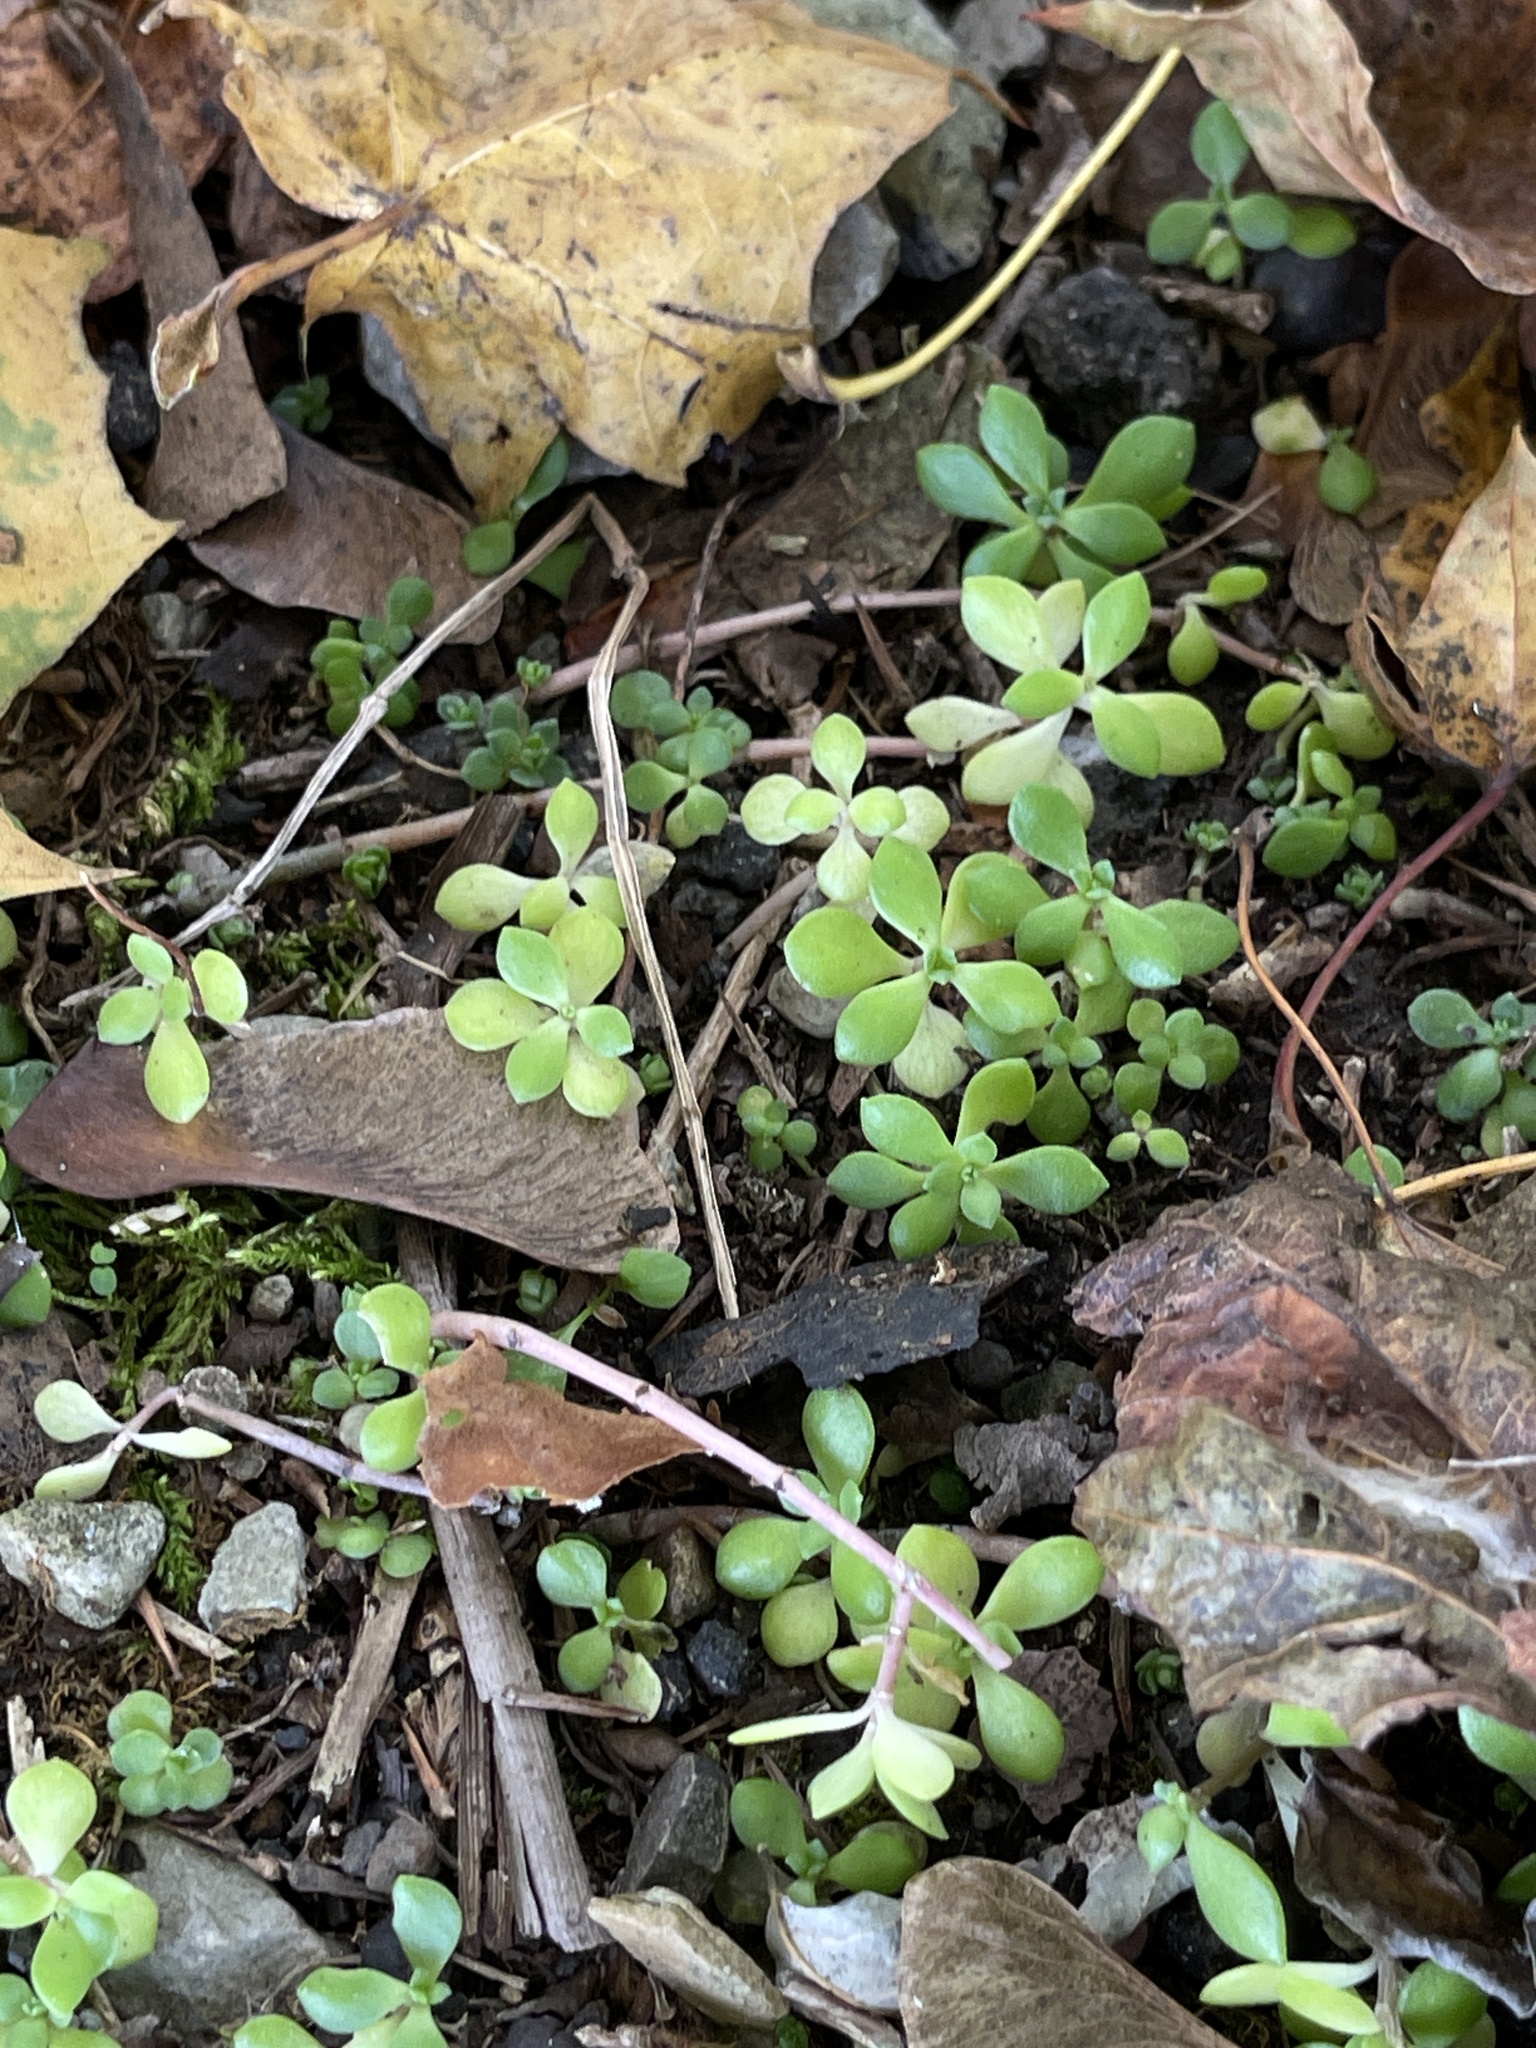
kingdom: Plantae
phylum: Tracheophyta
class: Magnoliopsida
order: Saxifragales
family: Crassulaceae
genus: Sedum
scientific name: Sedum sarmentosum
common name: Stringy stonecrop
